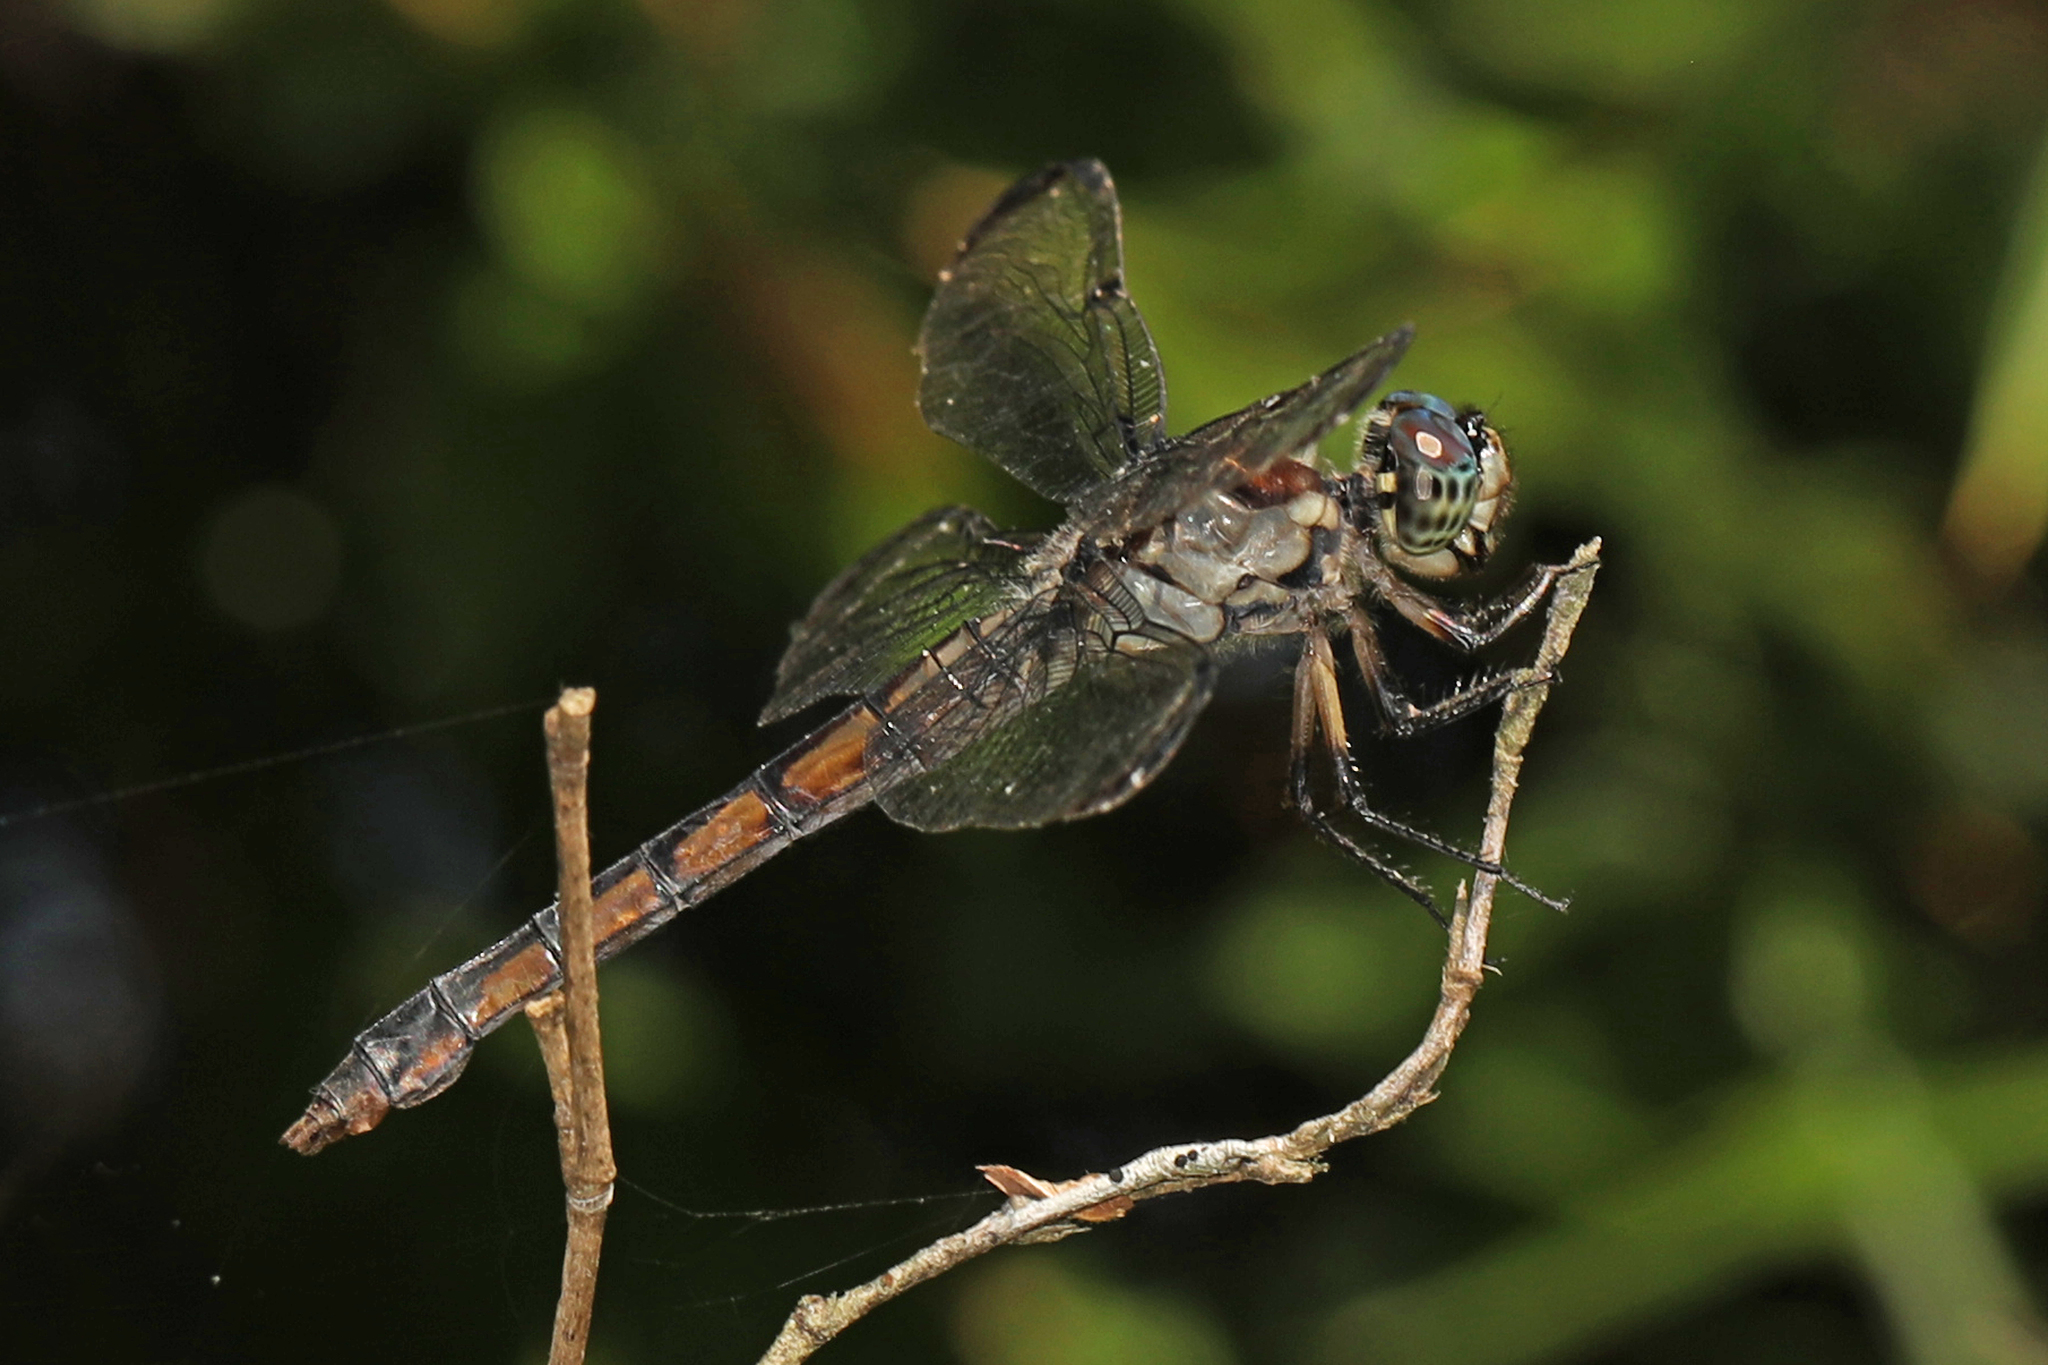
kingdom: Animalia
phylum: Arthropoda
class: Insecta
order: Odonata
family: Libellulidae
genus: Libellula
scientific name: Libellula incesta
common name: Slaty skimmer
